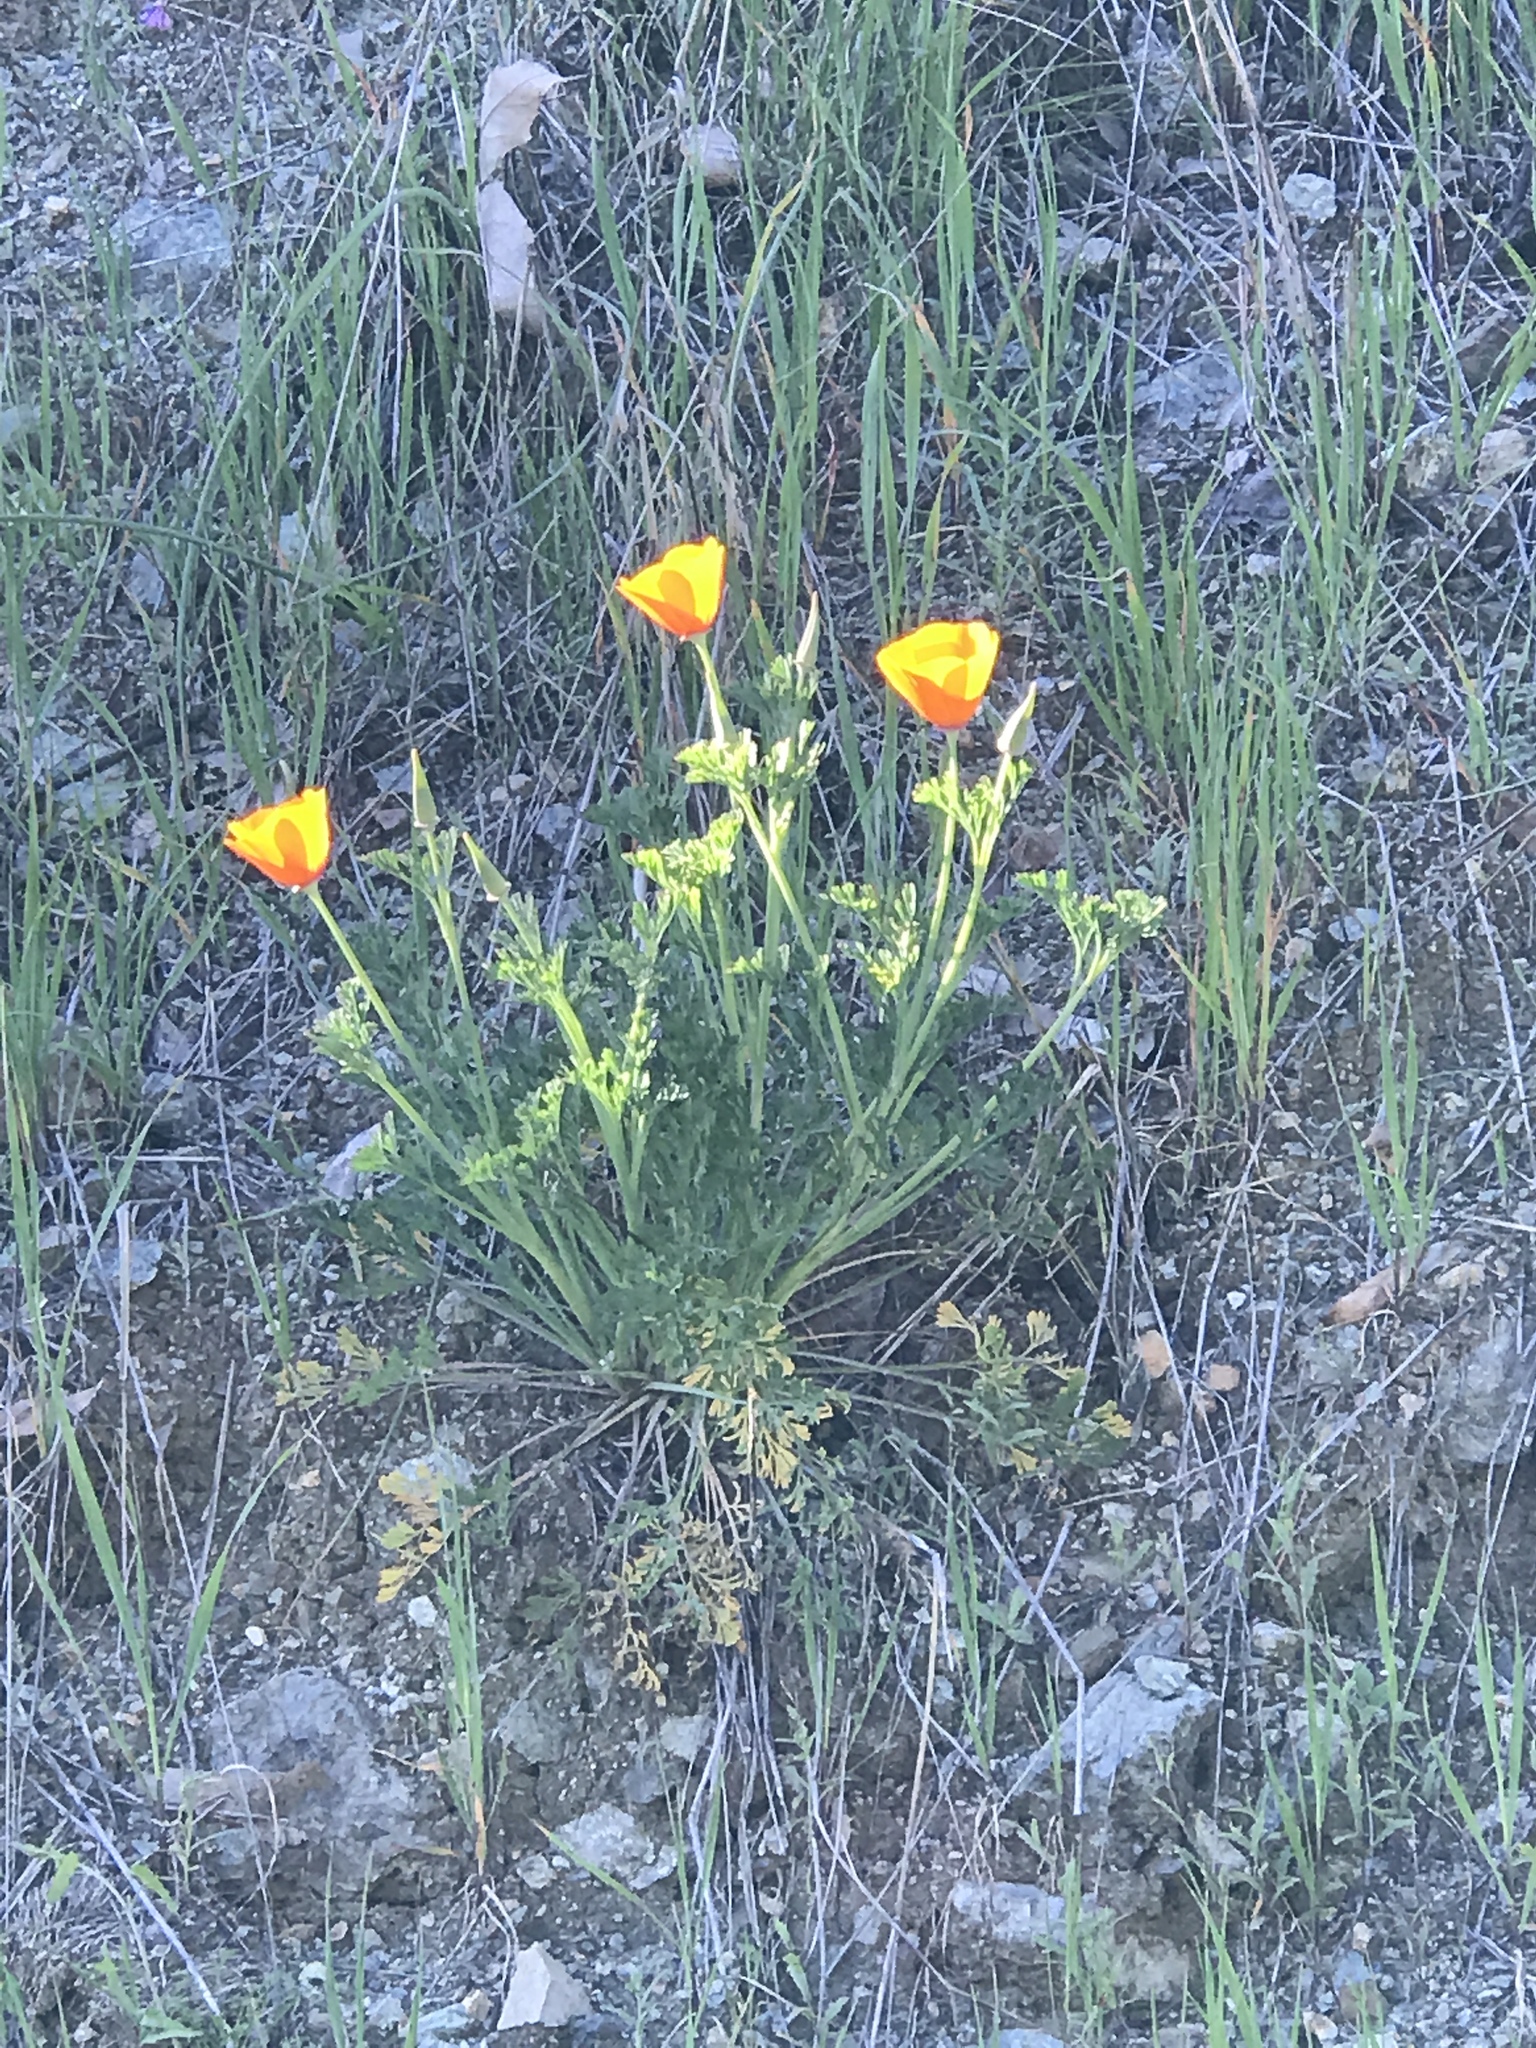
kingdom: Plantae
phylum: Tracheophyta
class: Magnoliopsida
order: Ranunculales
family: Papaveraceae
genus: Eschscholzia
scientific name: Eschscholzia californica
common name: California poppy
